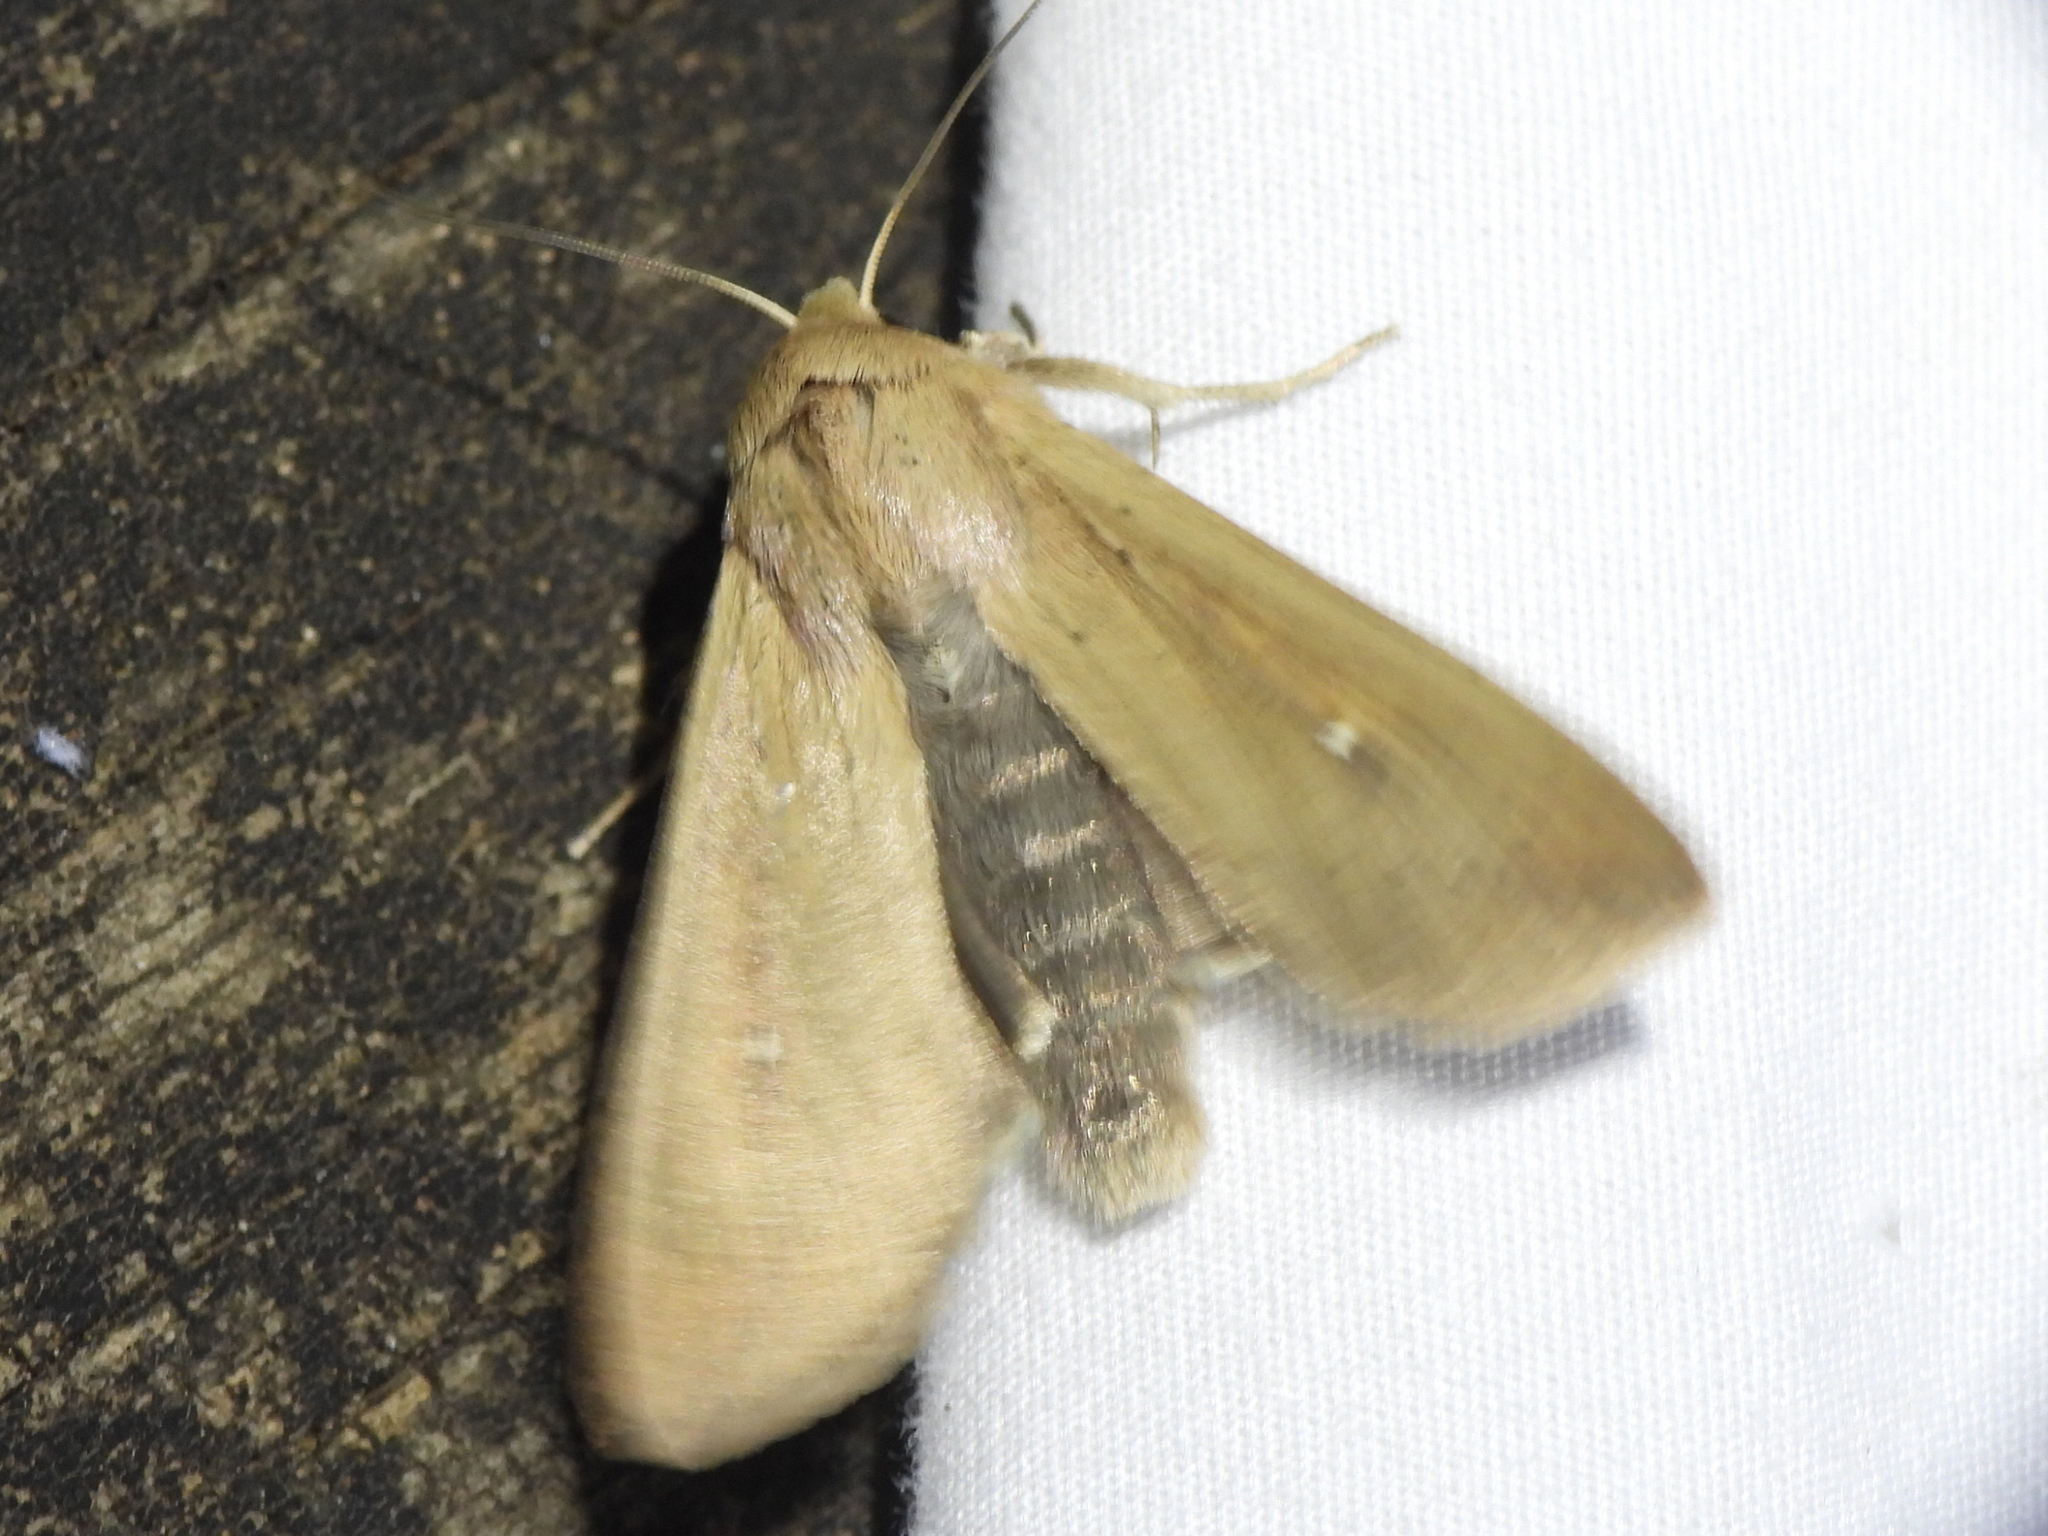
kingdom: Animalia
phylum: Arthropoda
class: Insecta
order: Lepidoptera
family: Noctuidae
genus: Mythimna
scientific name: Mythimna unipuncta
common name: White-speck
